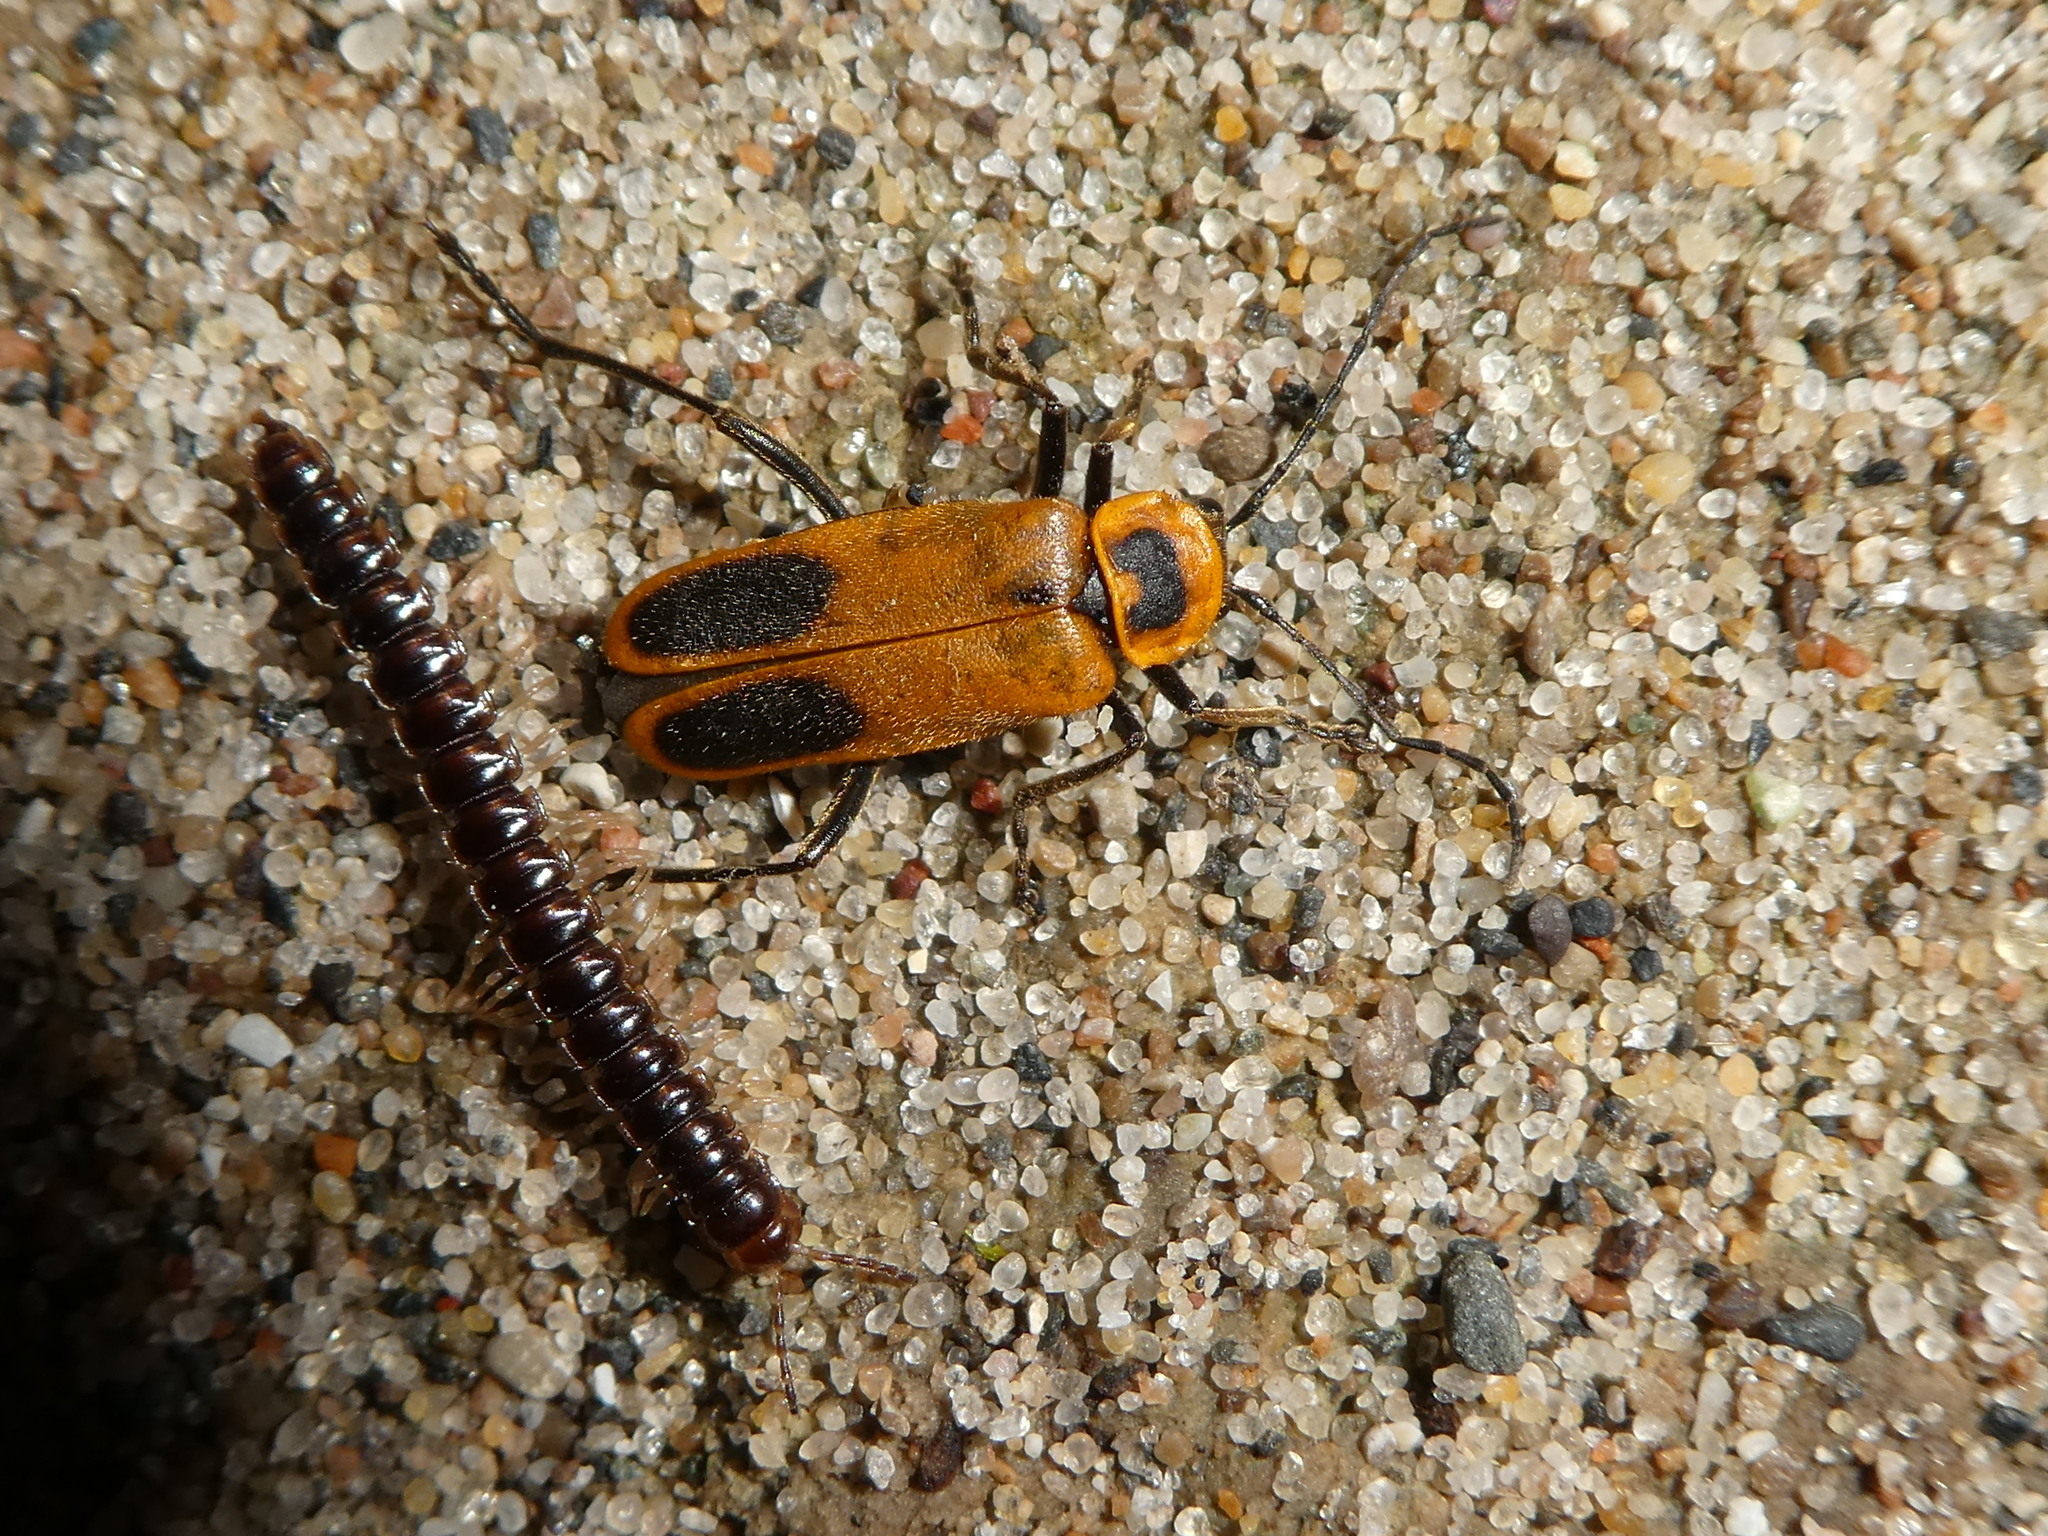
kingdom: Animalia
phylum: Arthropoda
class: Diplopoda
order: Polydesmida
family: Paradoxosomatidae
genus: Oxidus
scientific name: Oxidus gracilis
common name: Greenhouse millipede
